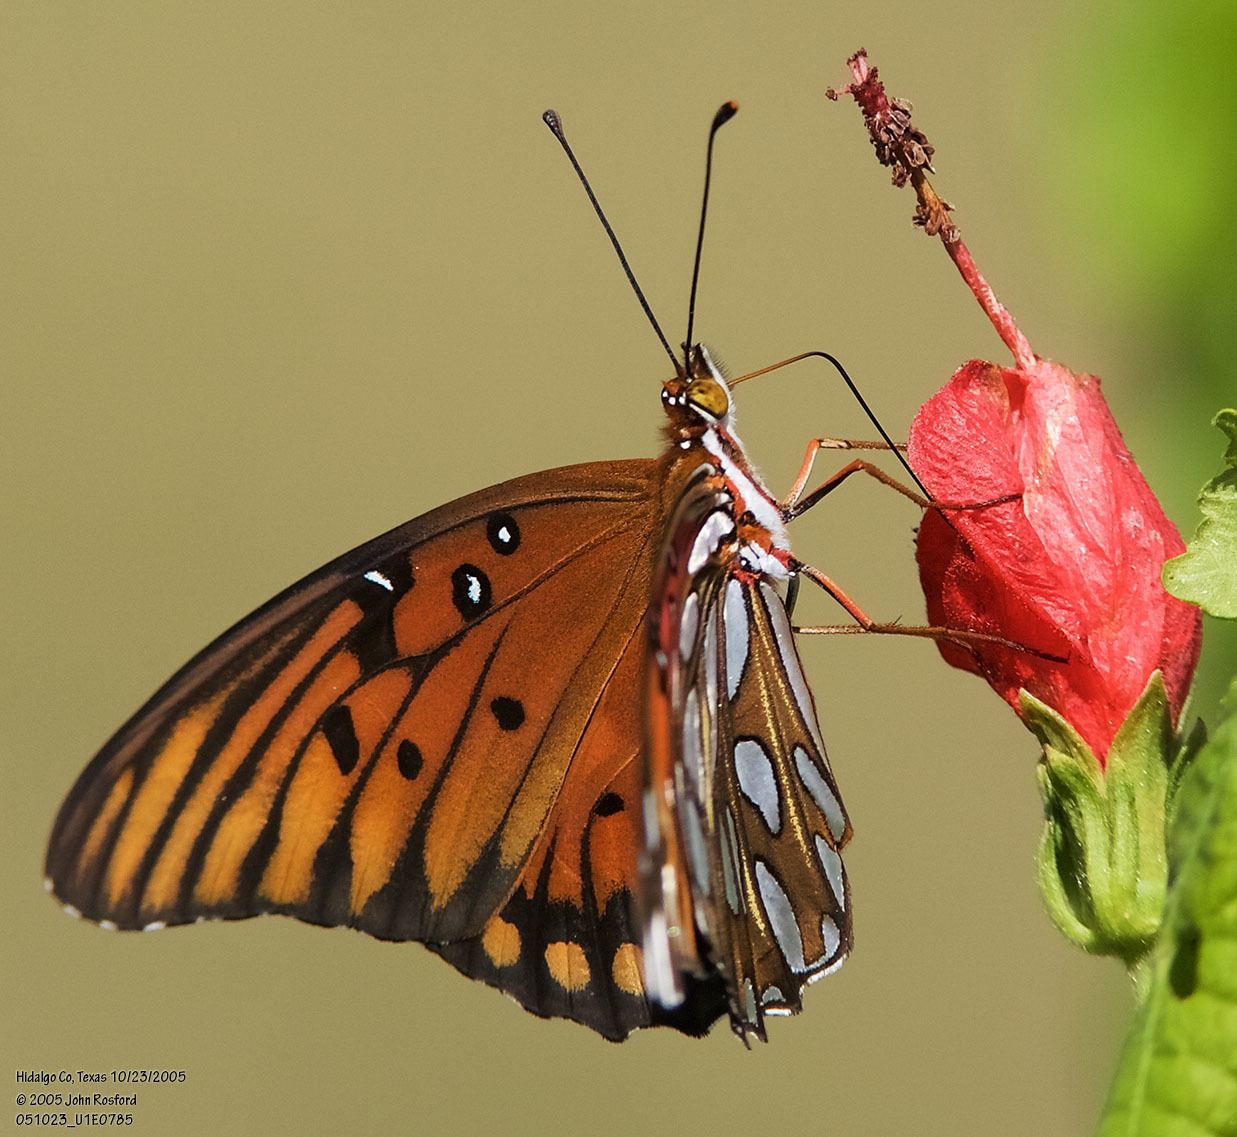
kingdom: Animalia
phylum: Arthropoda
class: Insecta
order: Lepidoptera
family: Nymphalidae
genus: Dione
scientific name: Dione vanillae
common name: Gulf fritillary
